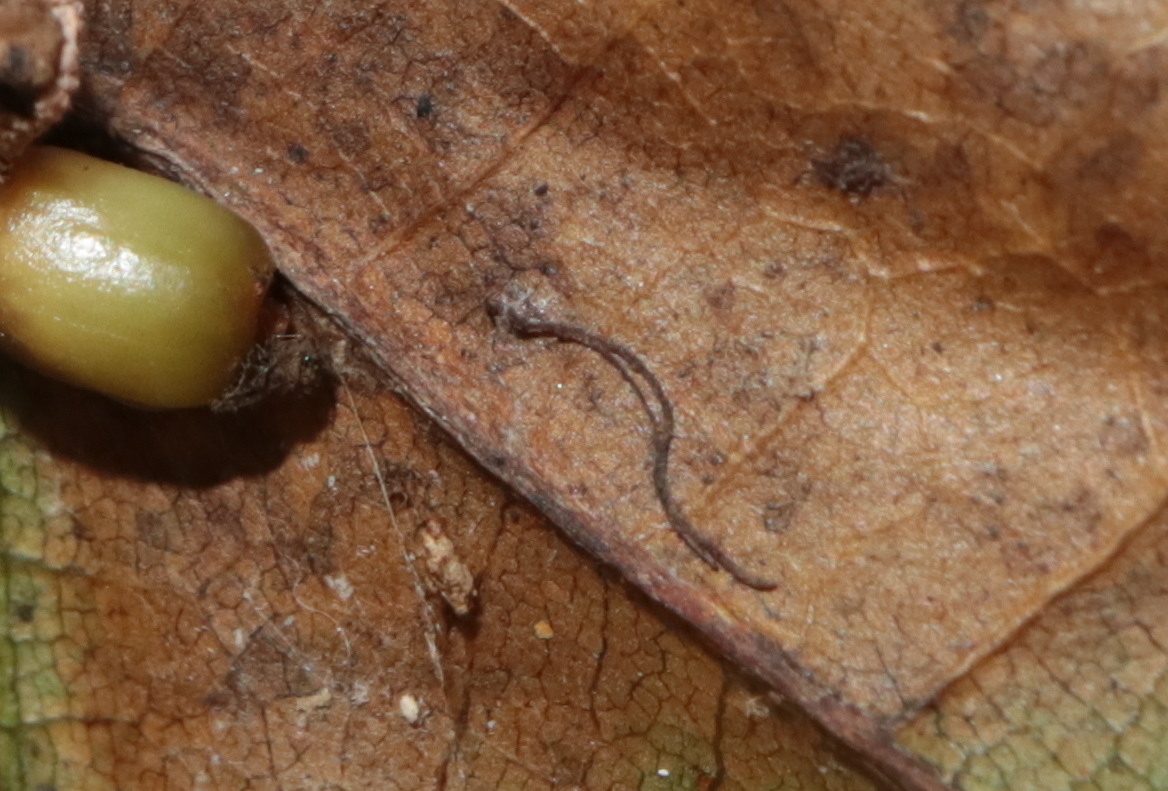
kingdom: Fungi
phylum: Basidiomycota
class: Pucciniomycetes
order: Pucciniales
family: Cronartiaceae
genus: Cronartium
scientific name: Cronartium quercuum
